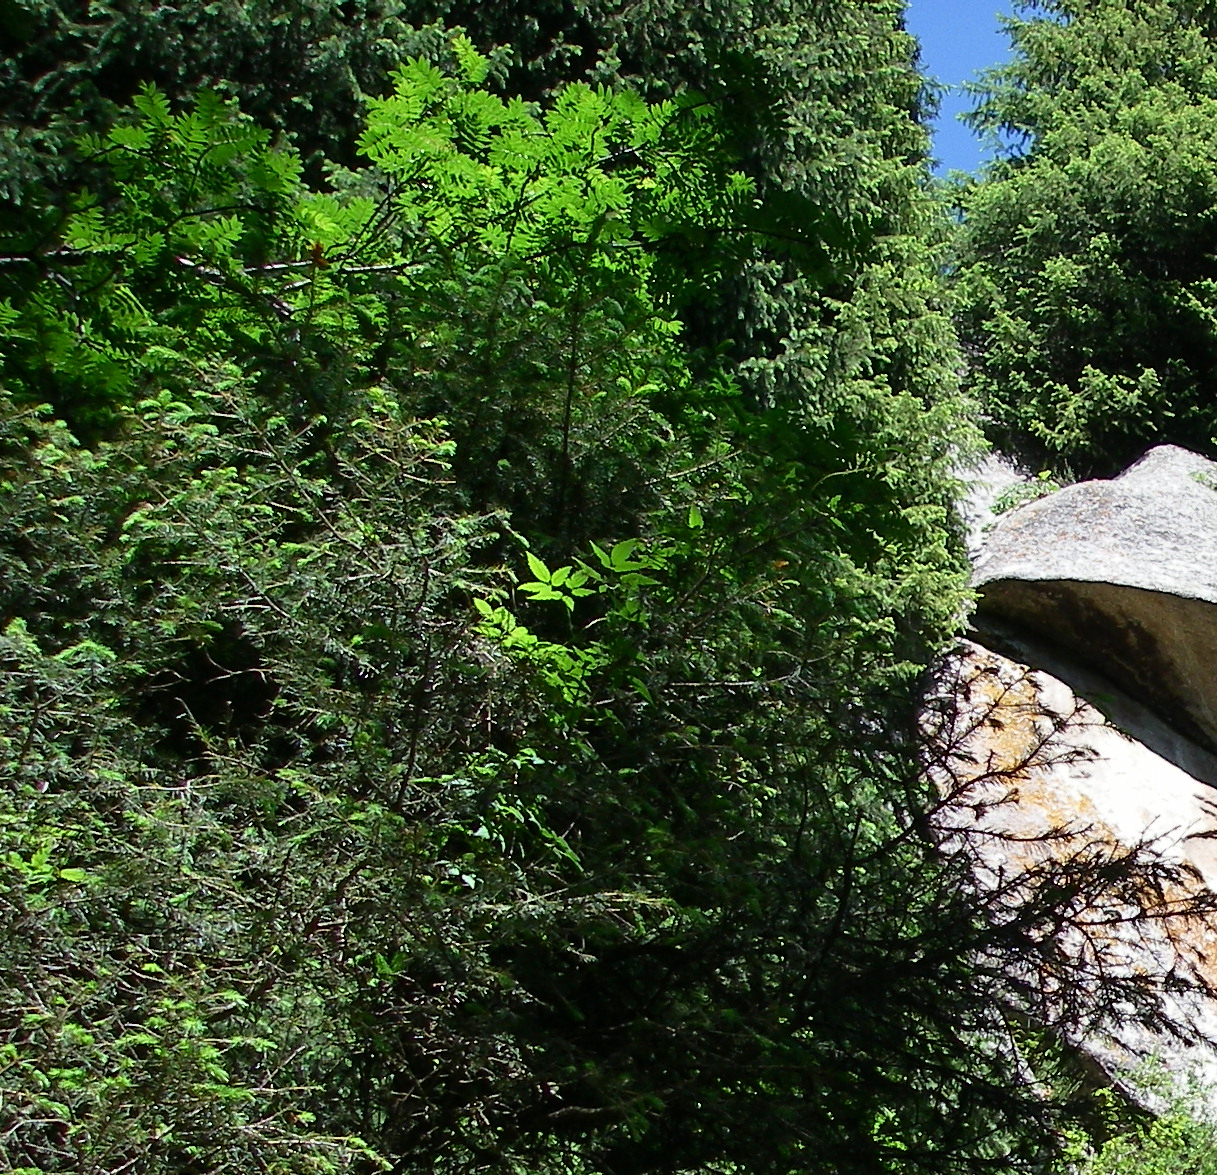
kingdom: Plantae
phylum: Tracheophyta
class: Magnoliopsida
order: Rosales
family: Rosaceae
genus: Sorbus
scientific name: Sorbus tianschanica
